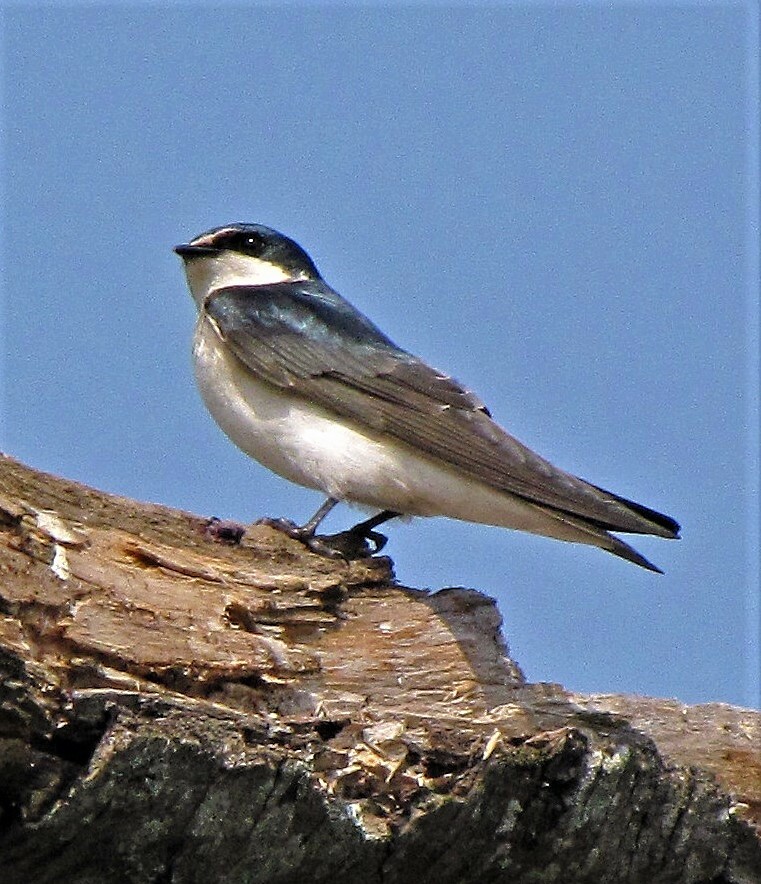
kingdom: Animalia
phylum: Chordata
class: Aves
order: Passeriformes
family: Hirundinidae
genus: Tachycineta
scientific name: Tachycineta leucorrhoa
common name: White-rumped swallow
